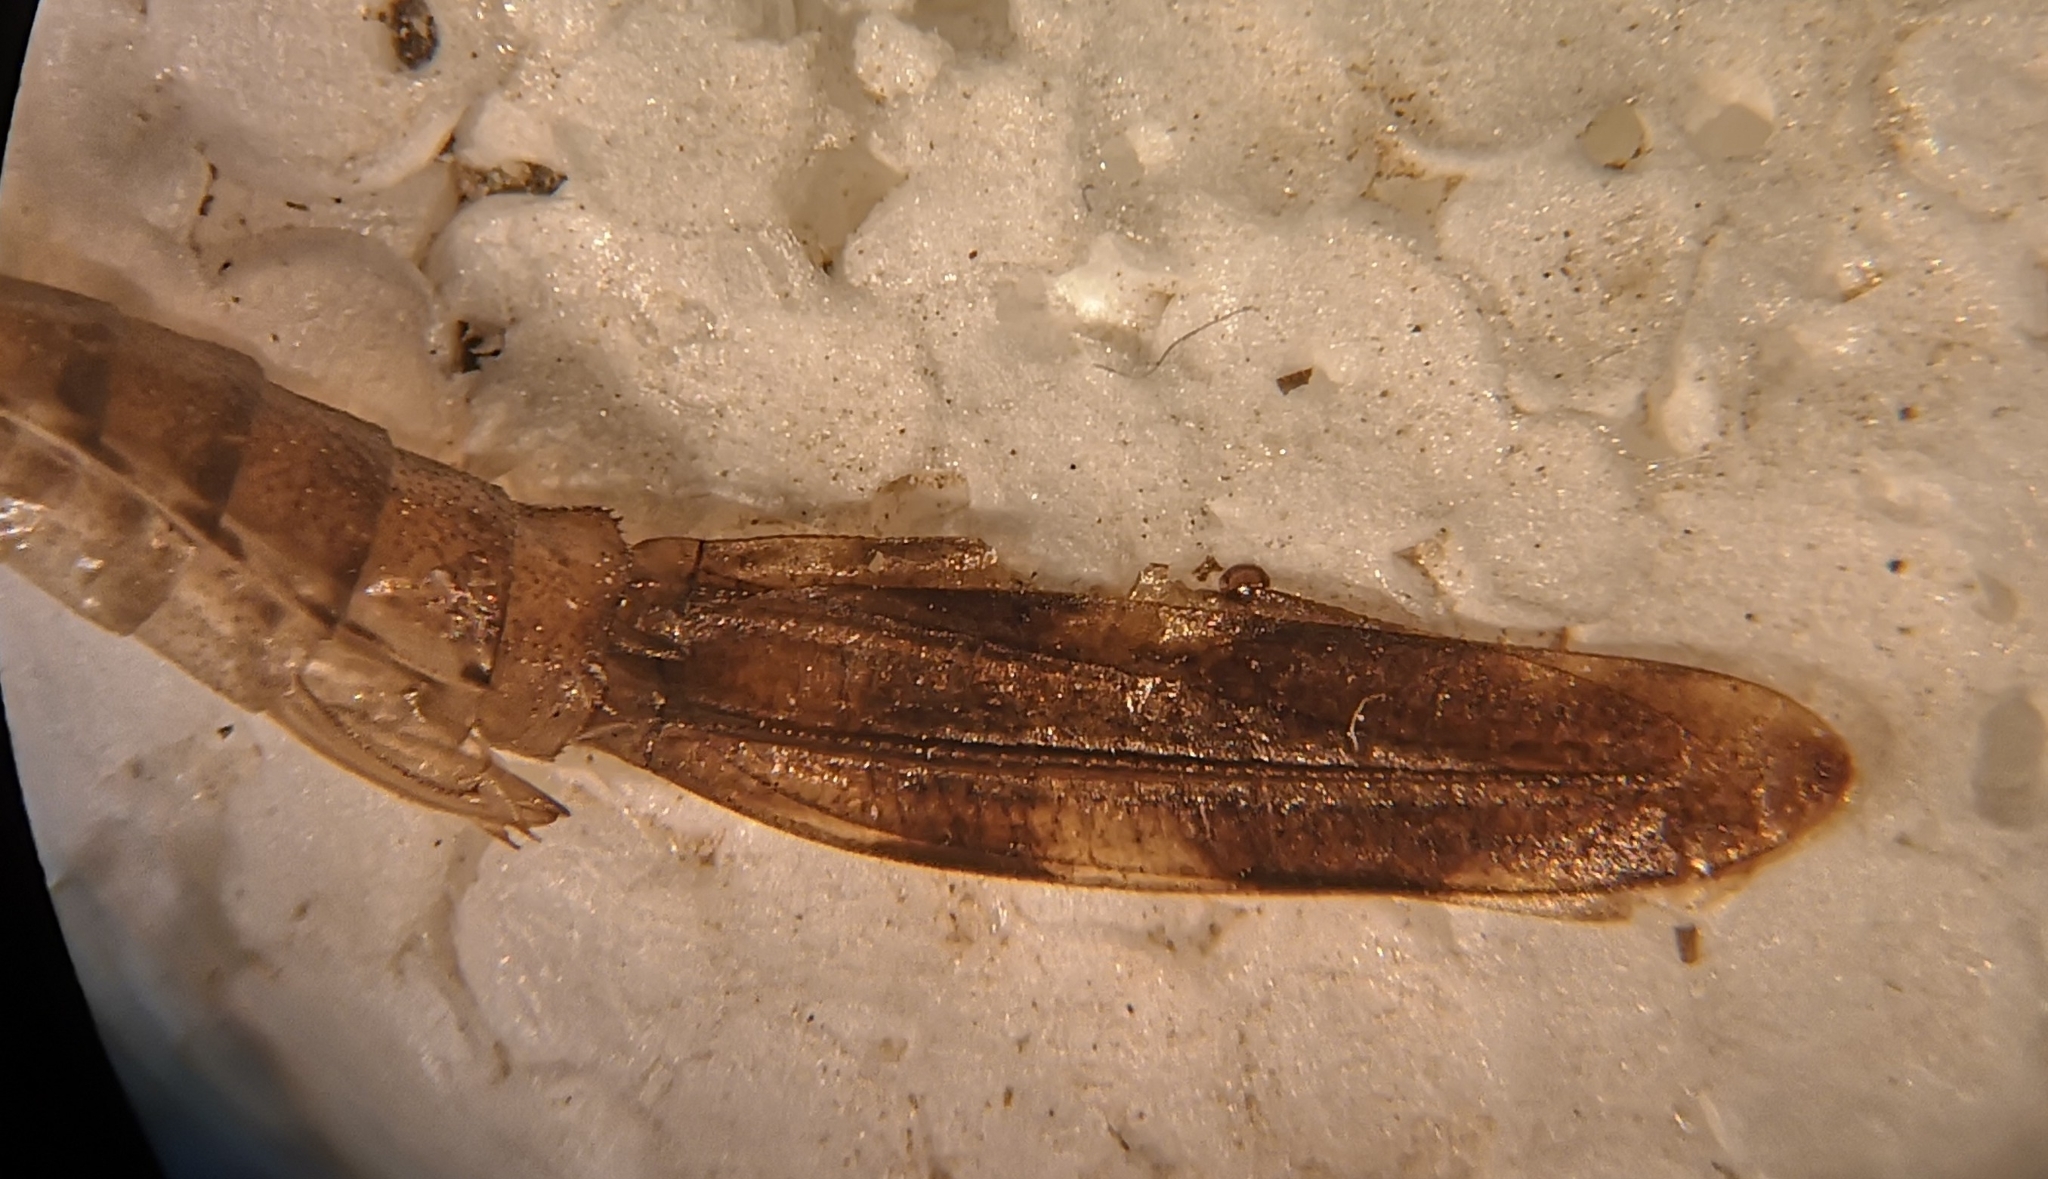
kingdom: Animalia
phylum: Arthropoda
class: Insecta
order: Odonata
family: Lestidae
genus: Chalcolestes
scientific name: Chalcolestes viridis
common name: Green emerald damselfly
